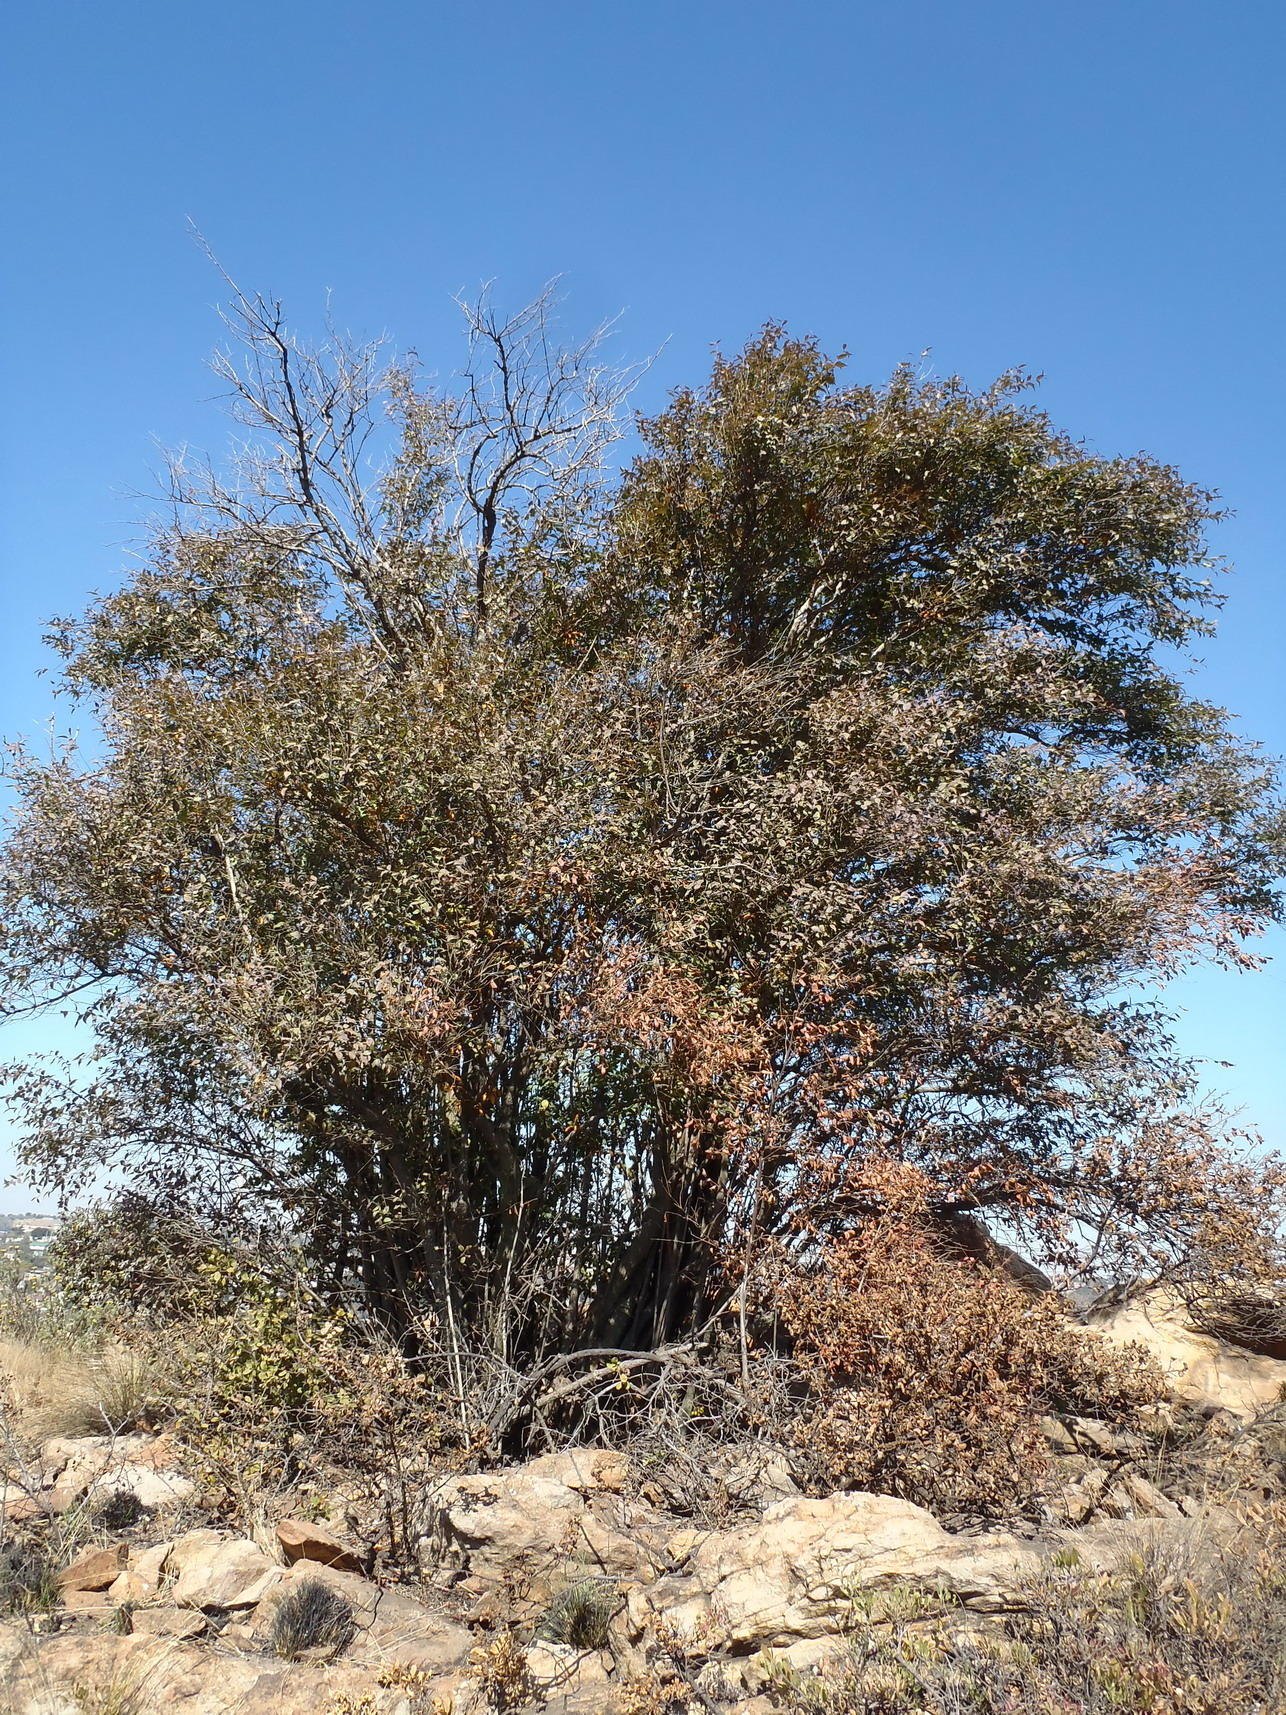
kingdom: Plantae
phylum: Tracheophyta
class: Magnoliopsida
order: Lamiales
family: Stilbaceae
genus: Halleria
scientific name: Halleria lucida
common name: Tree fuschia
